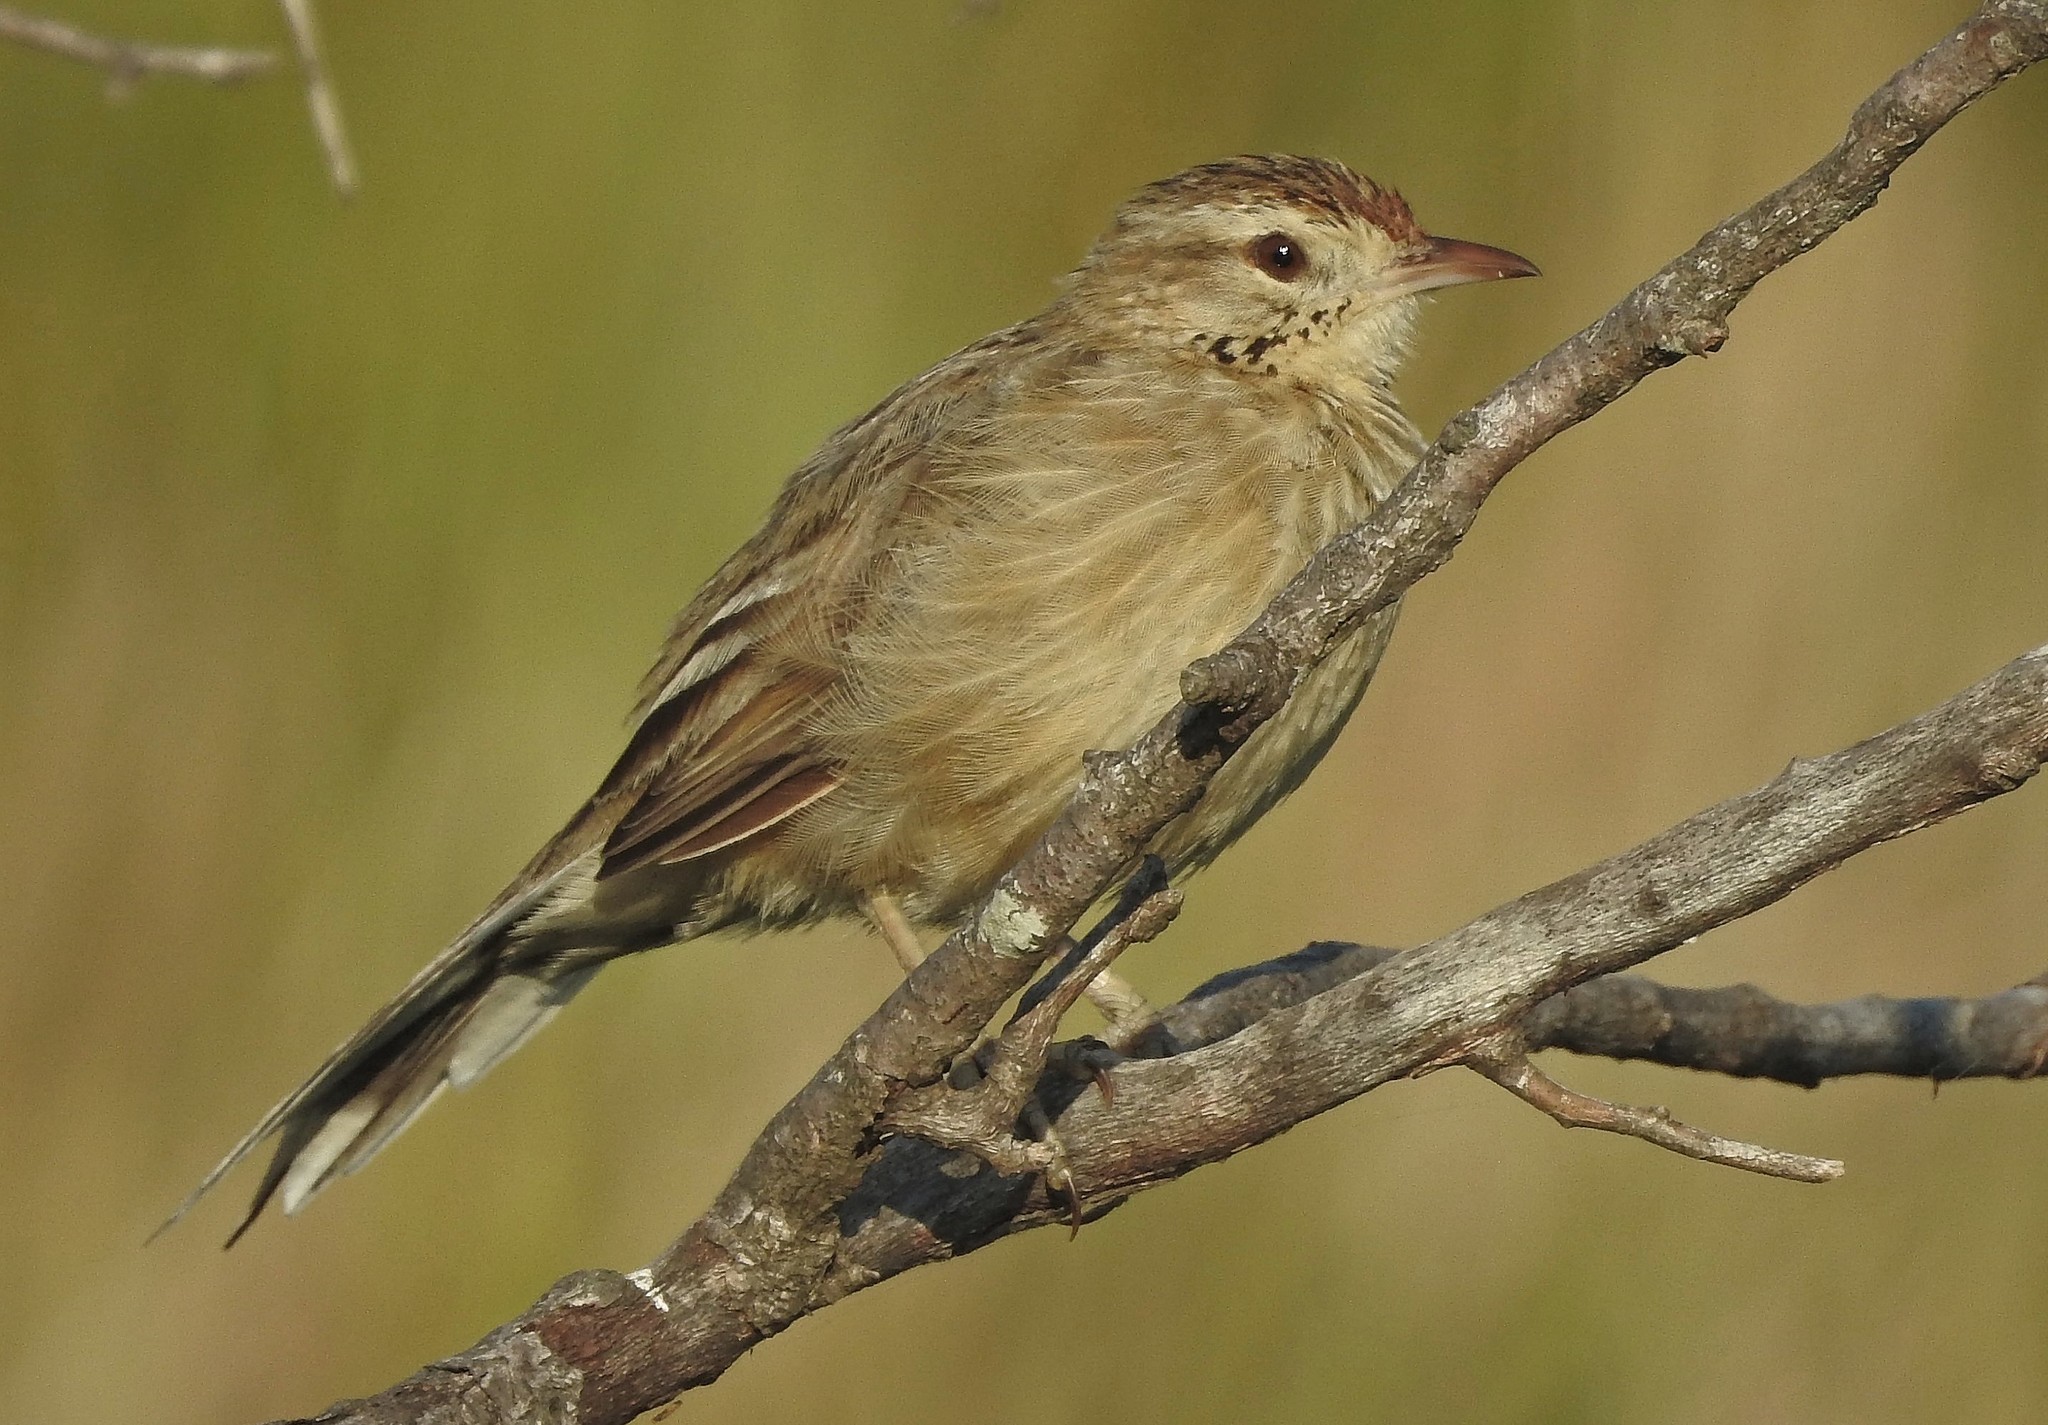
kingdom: Animalia
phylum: Chordata
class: Aves
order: Passeriformes
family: Furnariidae
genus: Anumbius
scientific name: Anumbius annumbi
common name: Firewood-gatherer
